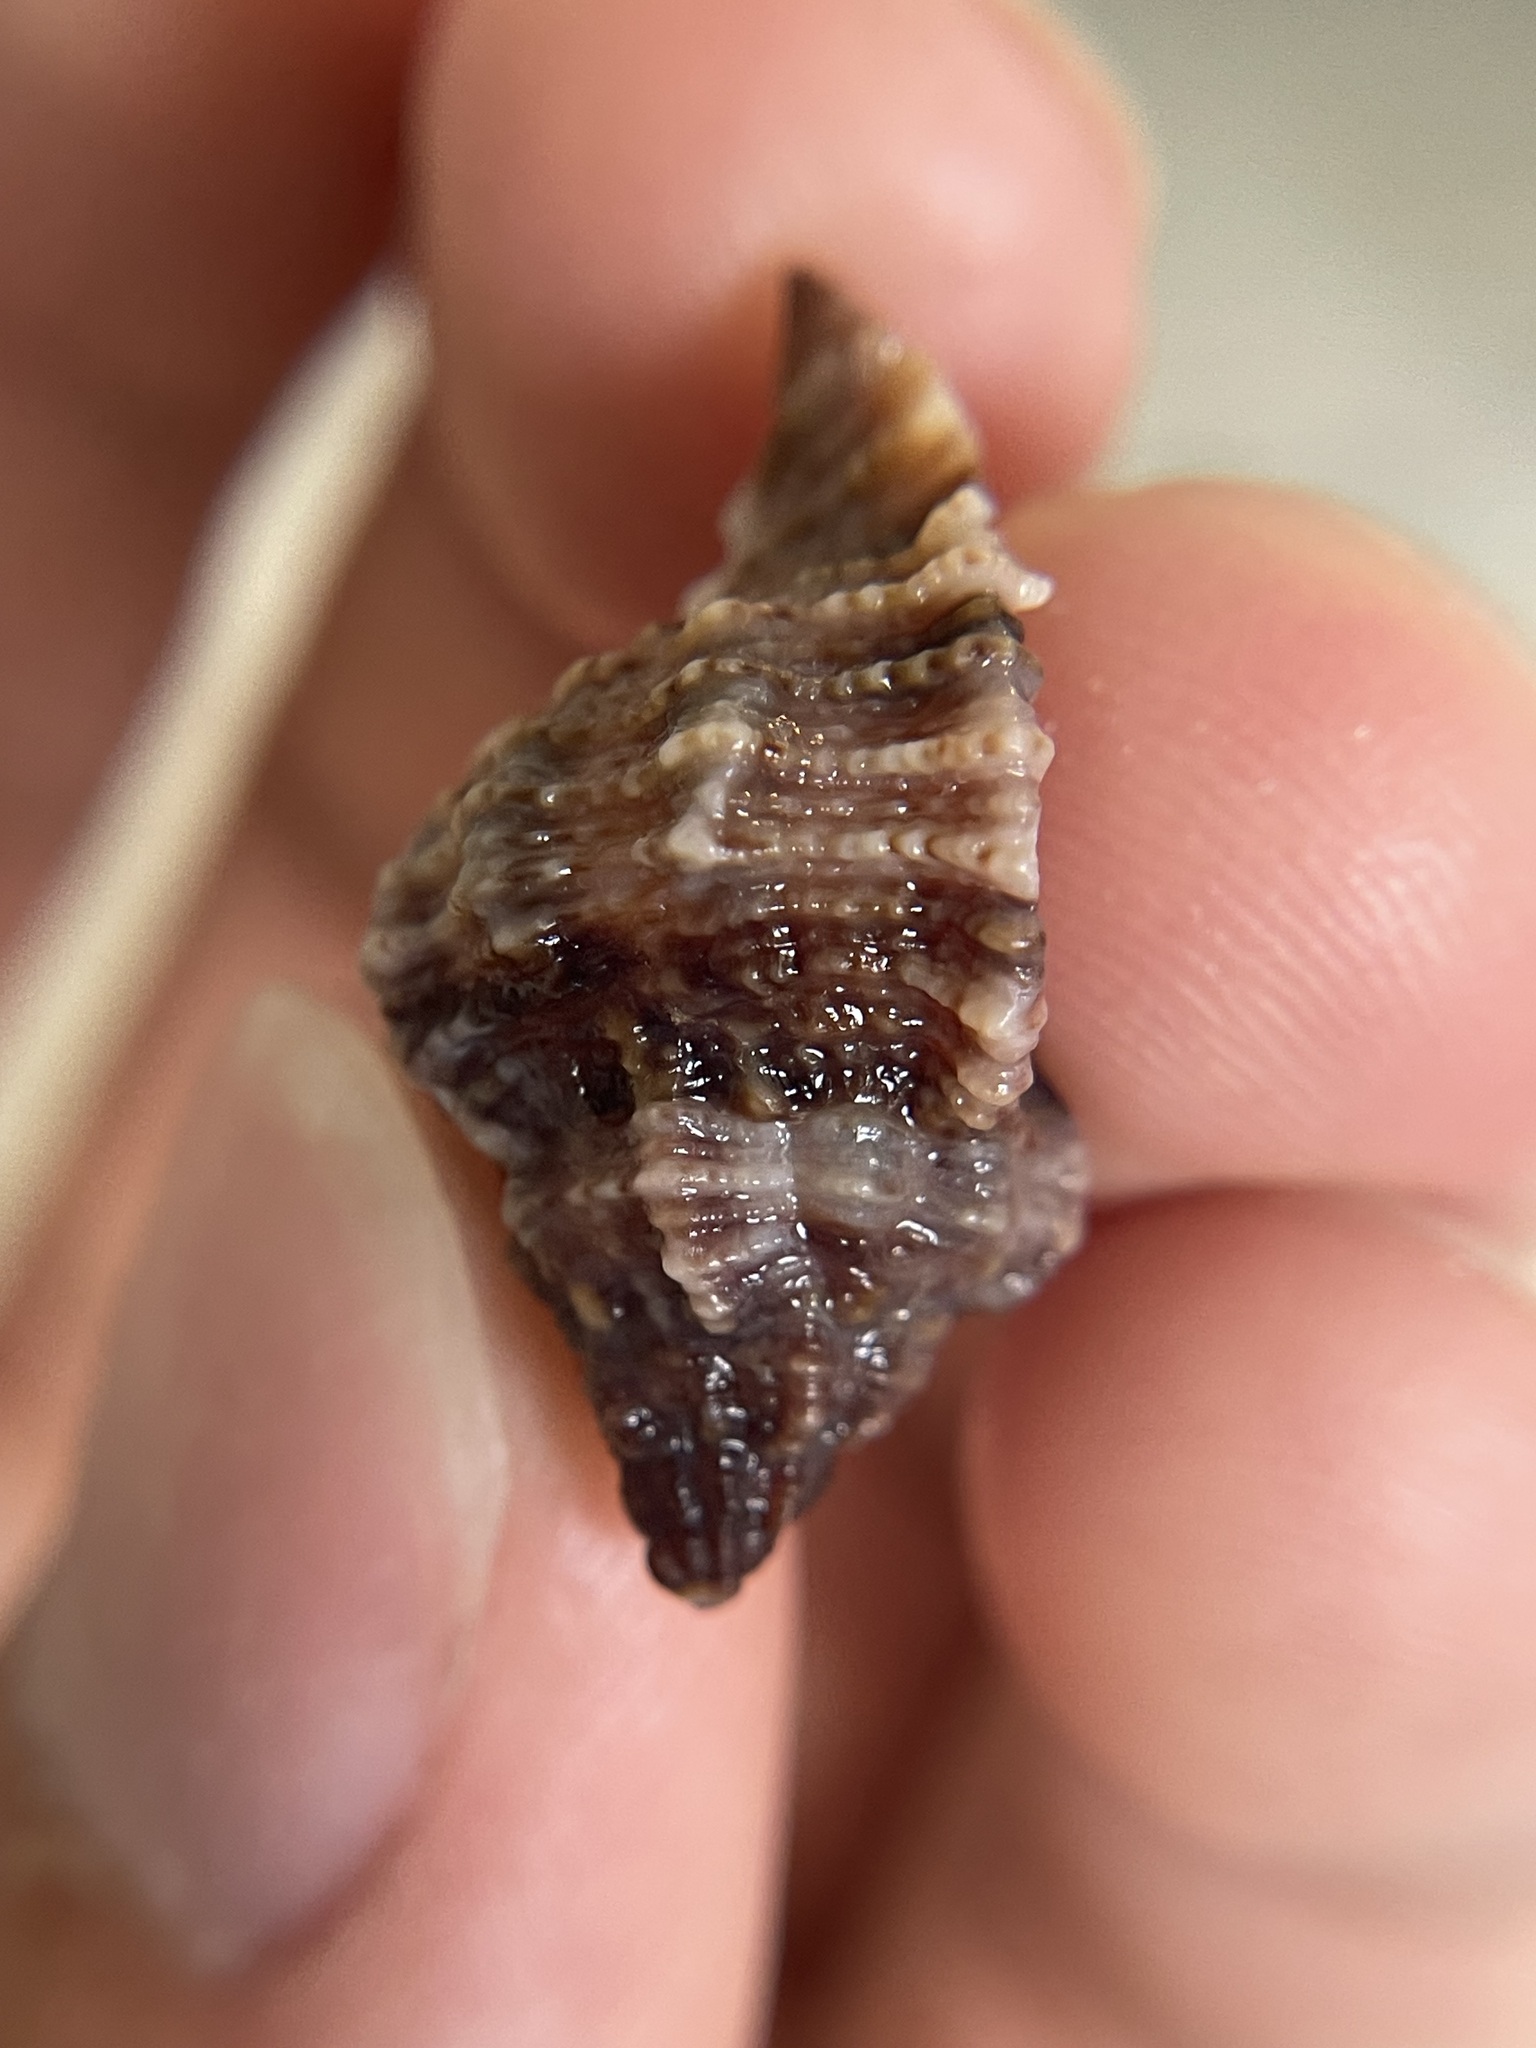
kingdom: Animalia
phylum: Mollusca
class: Gastropoda
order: Neogastropoda
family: Muricidae
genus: Phyllonotus
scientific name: Phyllonotus pomum
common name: Apple murex
